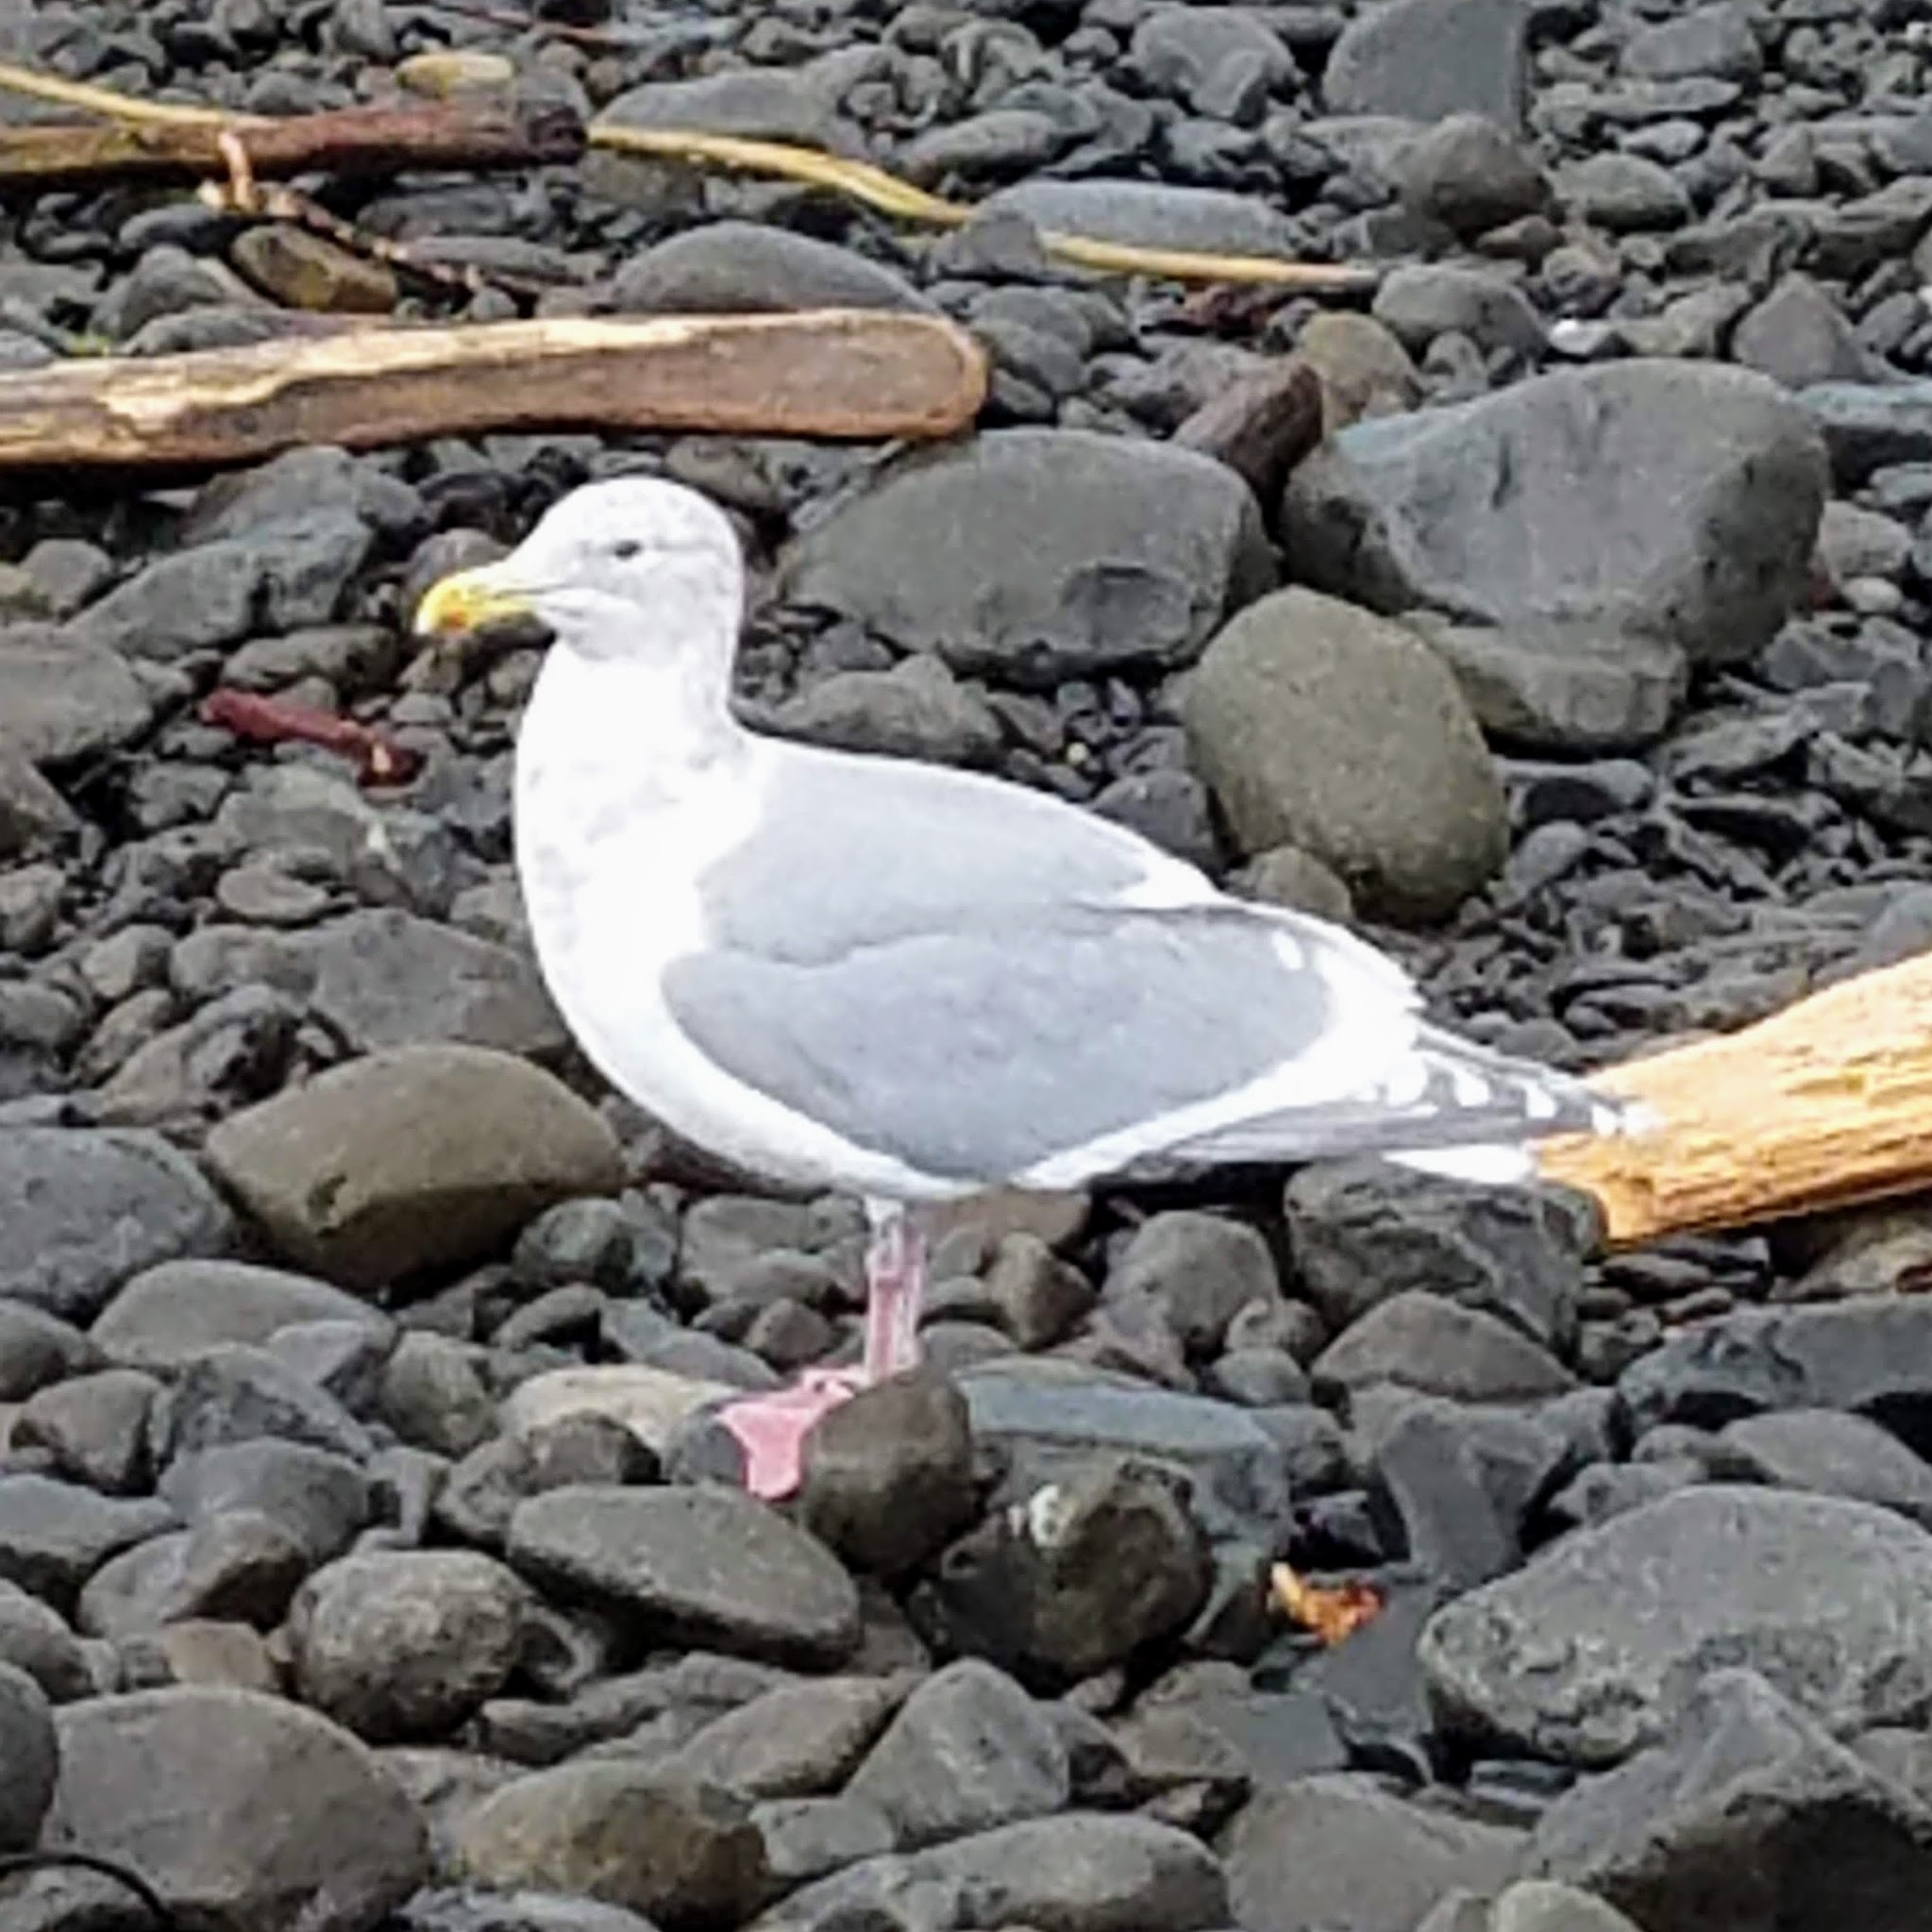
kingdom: Animalia
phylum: Chordata
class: Aves
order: Charadriiformes
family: Laridae
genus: Larus
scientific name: Larus glaucescens
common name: Glaucous-winged gull
